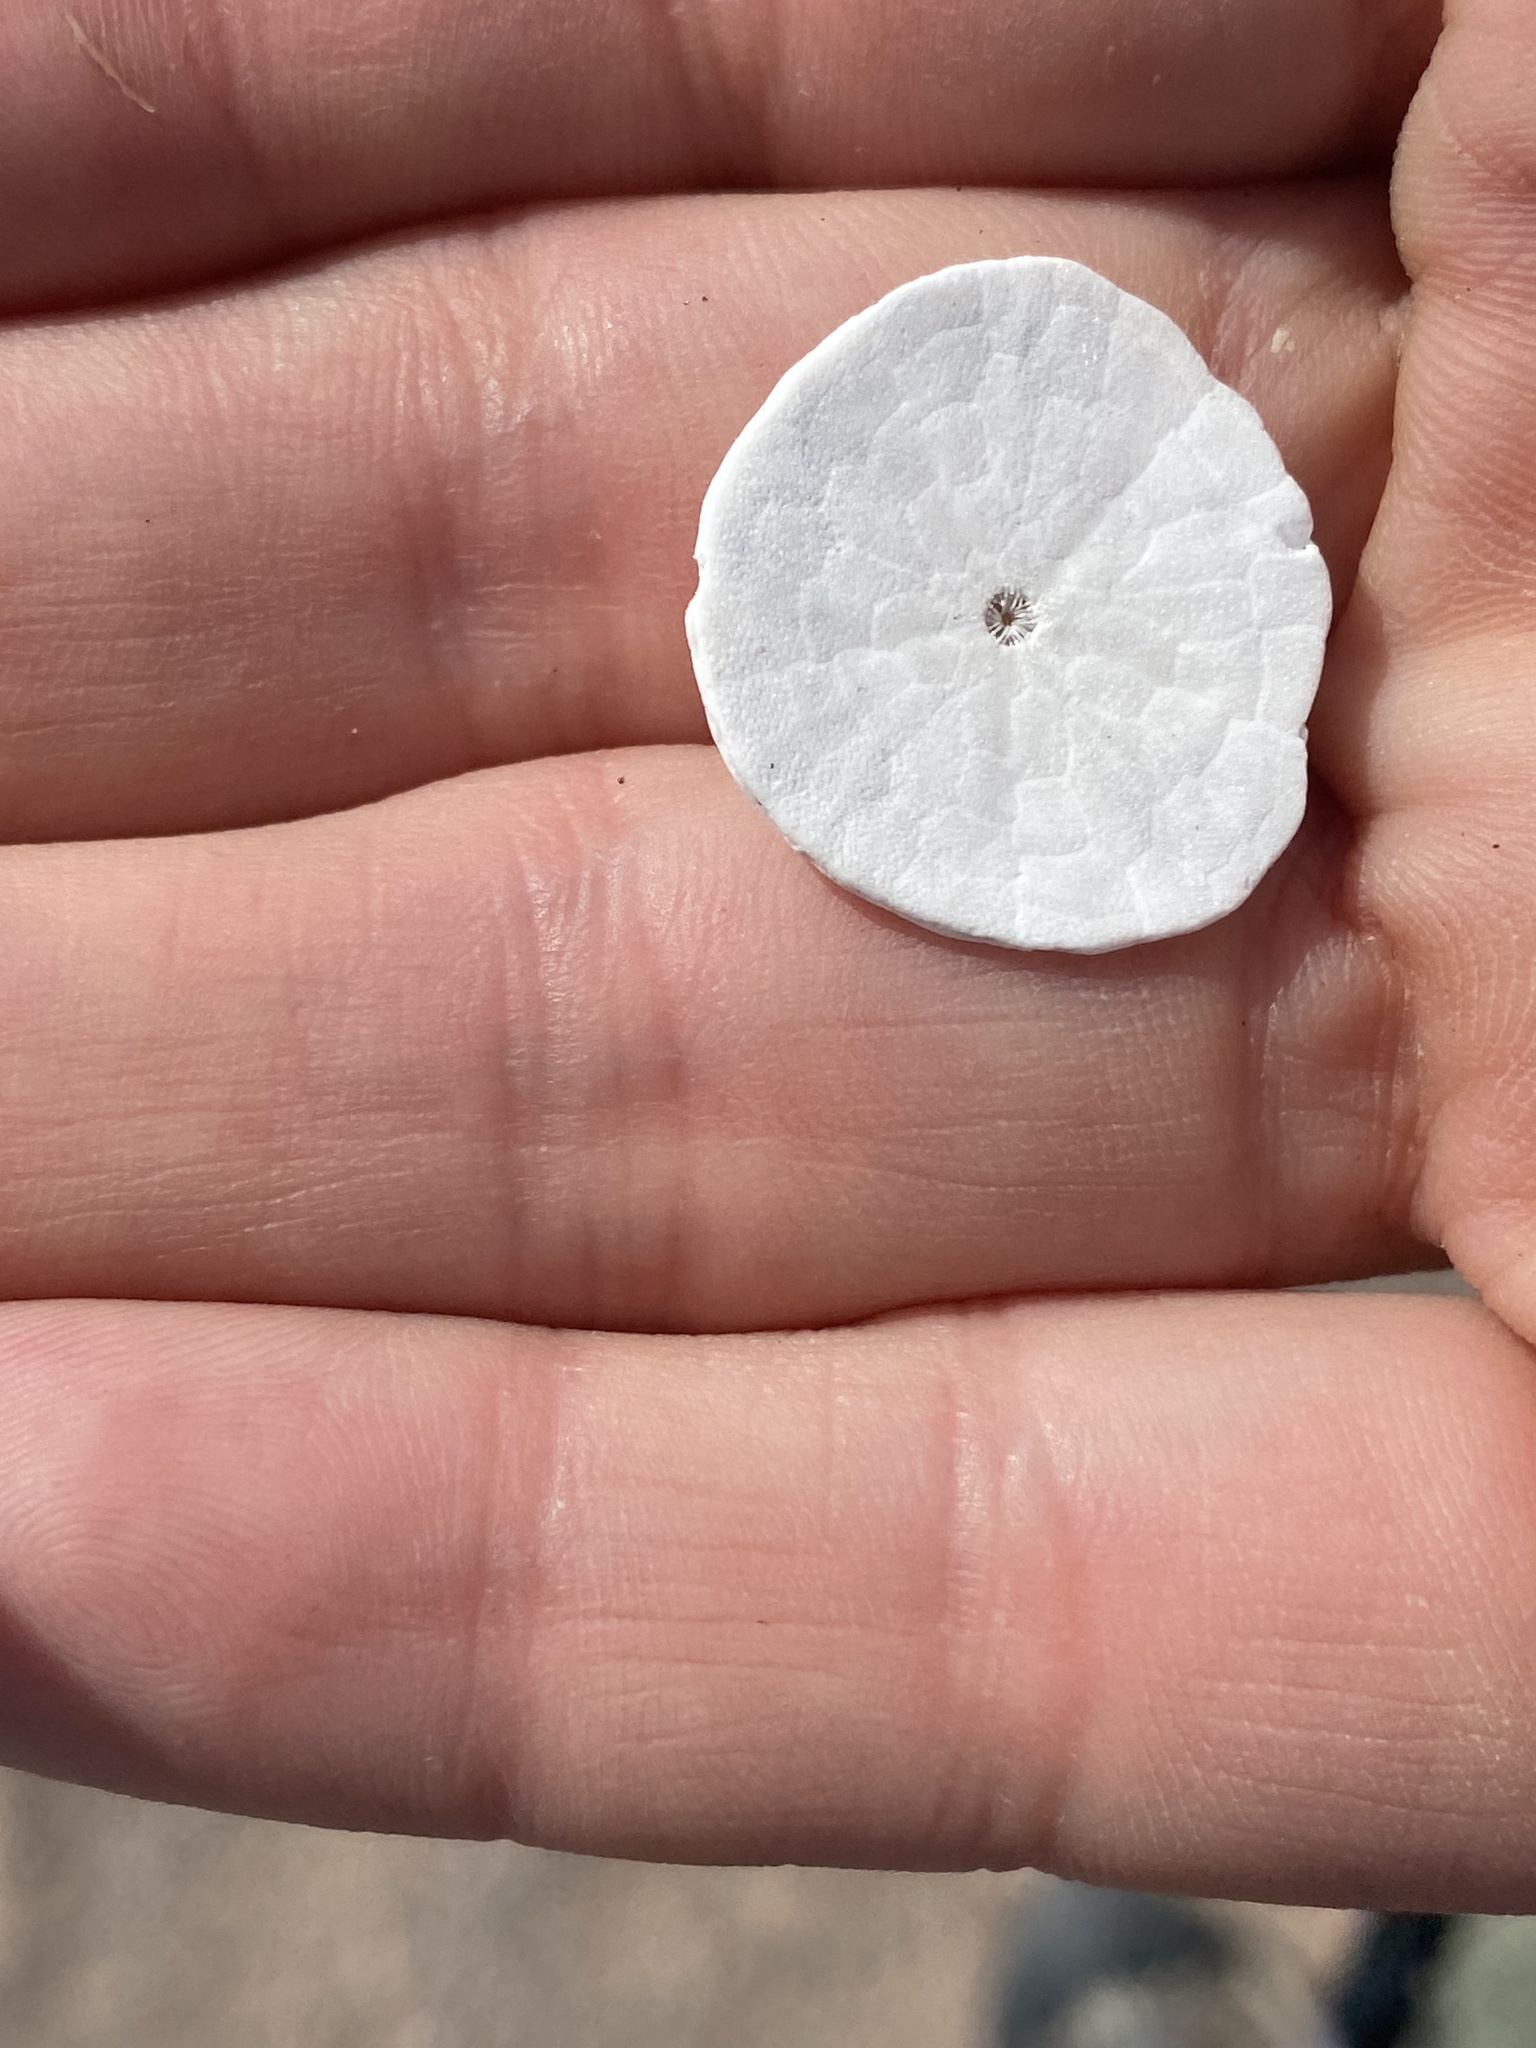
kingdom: Animalia
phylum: Echinodermata
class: Echinoidea
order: Echinolampadacea
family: Echinarachniidae
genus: Echinarachnius
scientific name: Echinarachnius parma
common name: Common sand dollar
